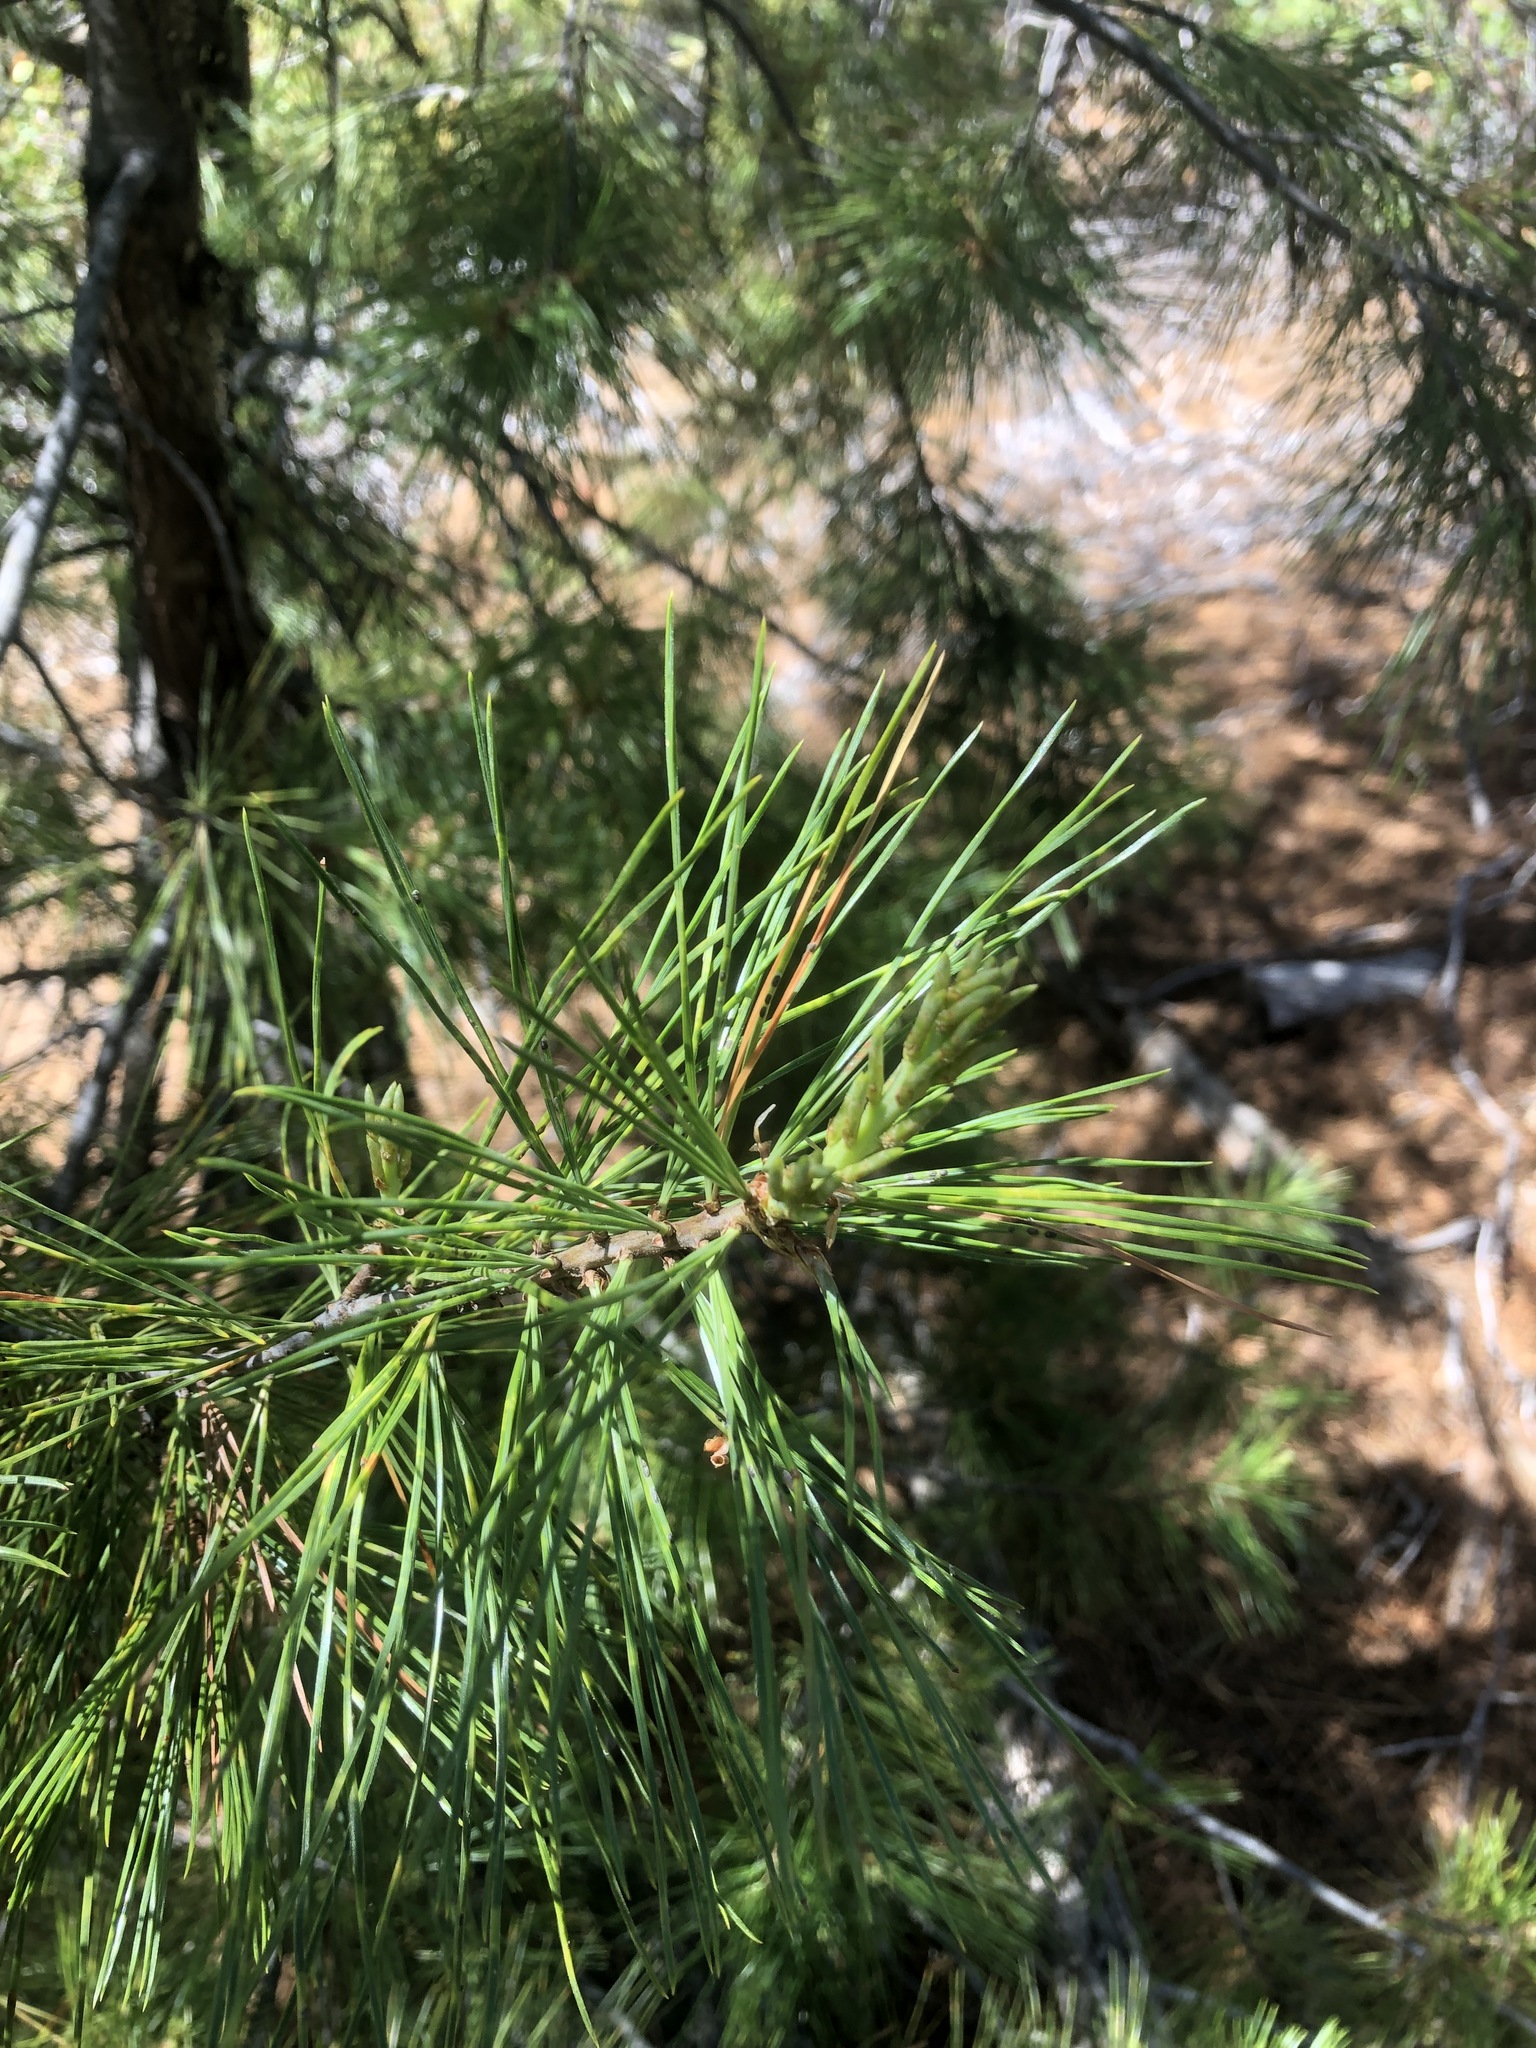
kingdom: Plantae
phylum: Tracheophyta
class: Pinopsida
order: Pinales
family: Pinaceae
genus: Pinus
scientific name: Pinus lambertiana
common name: Sugar pine
